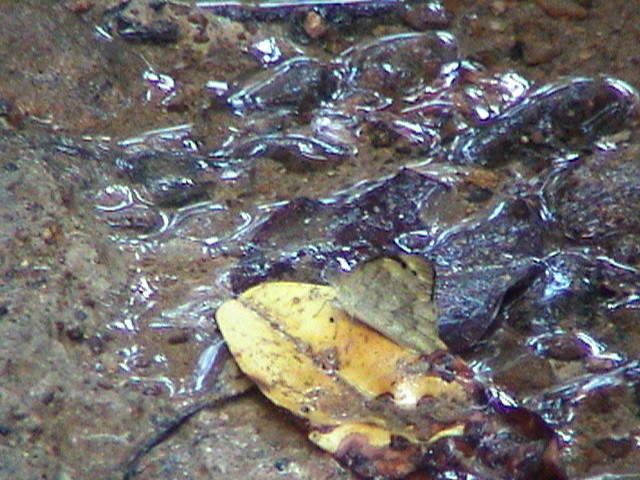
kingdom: Animalia
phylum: Arthropoda
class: Insecta
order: Lepidoptera
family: Pieridae
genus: Appias
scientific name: Appias indra
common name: Plain puffin
